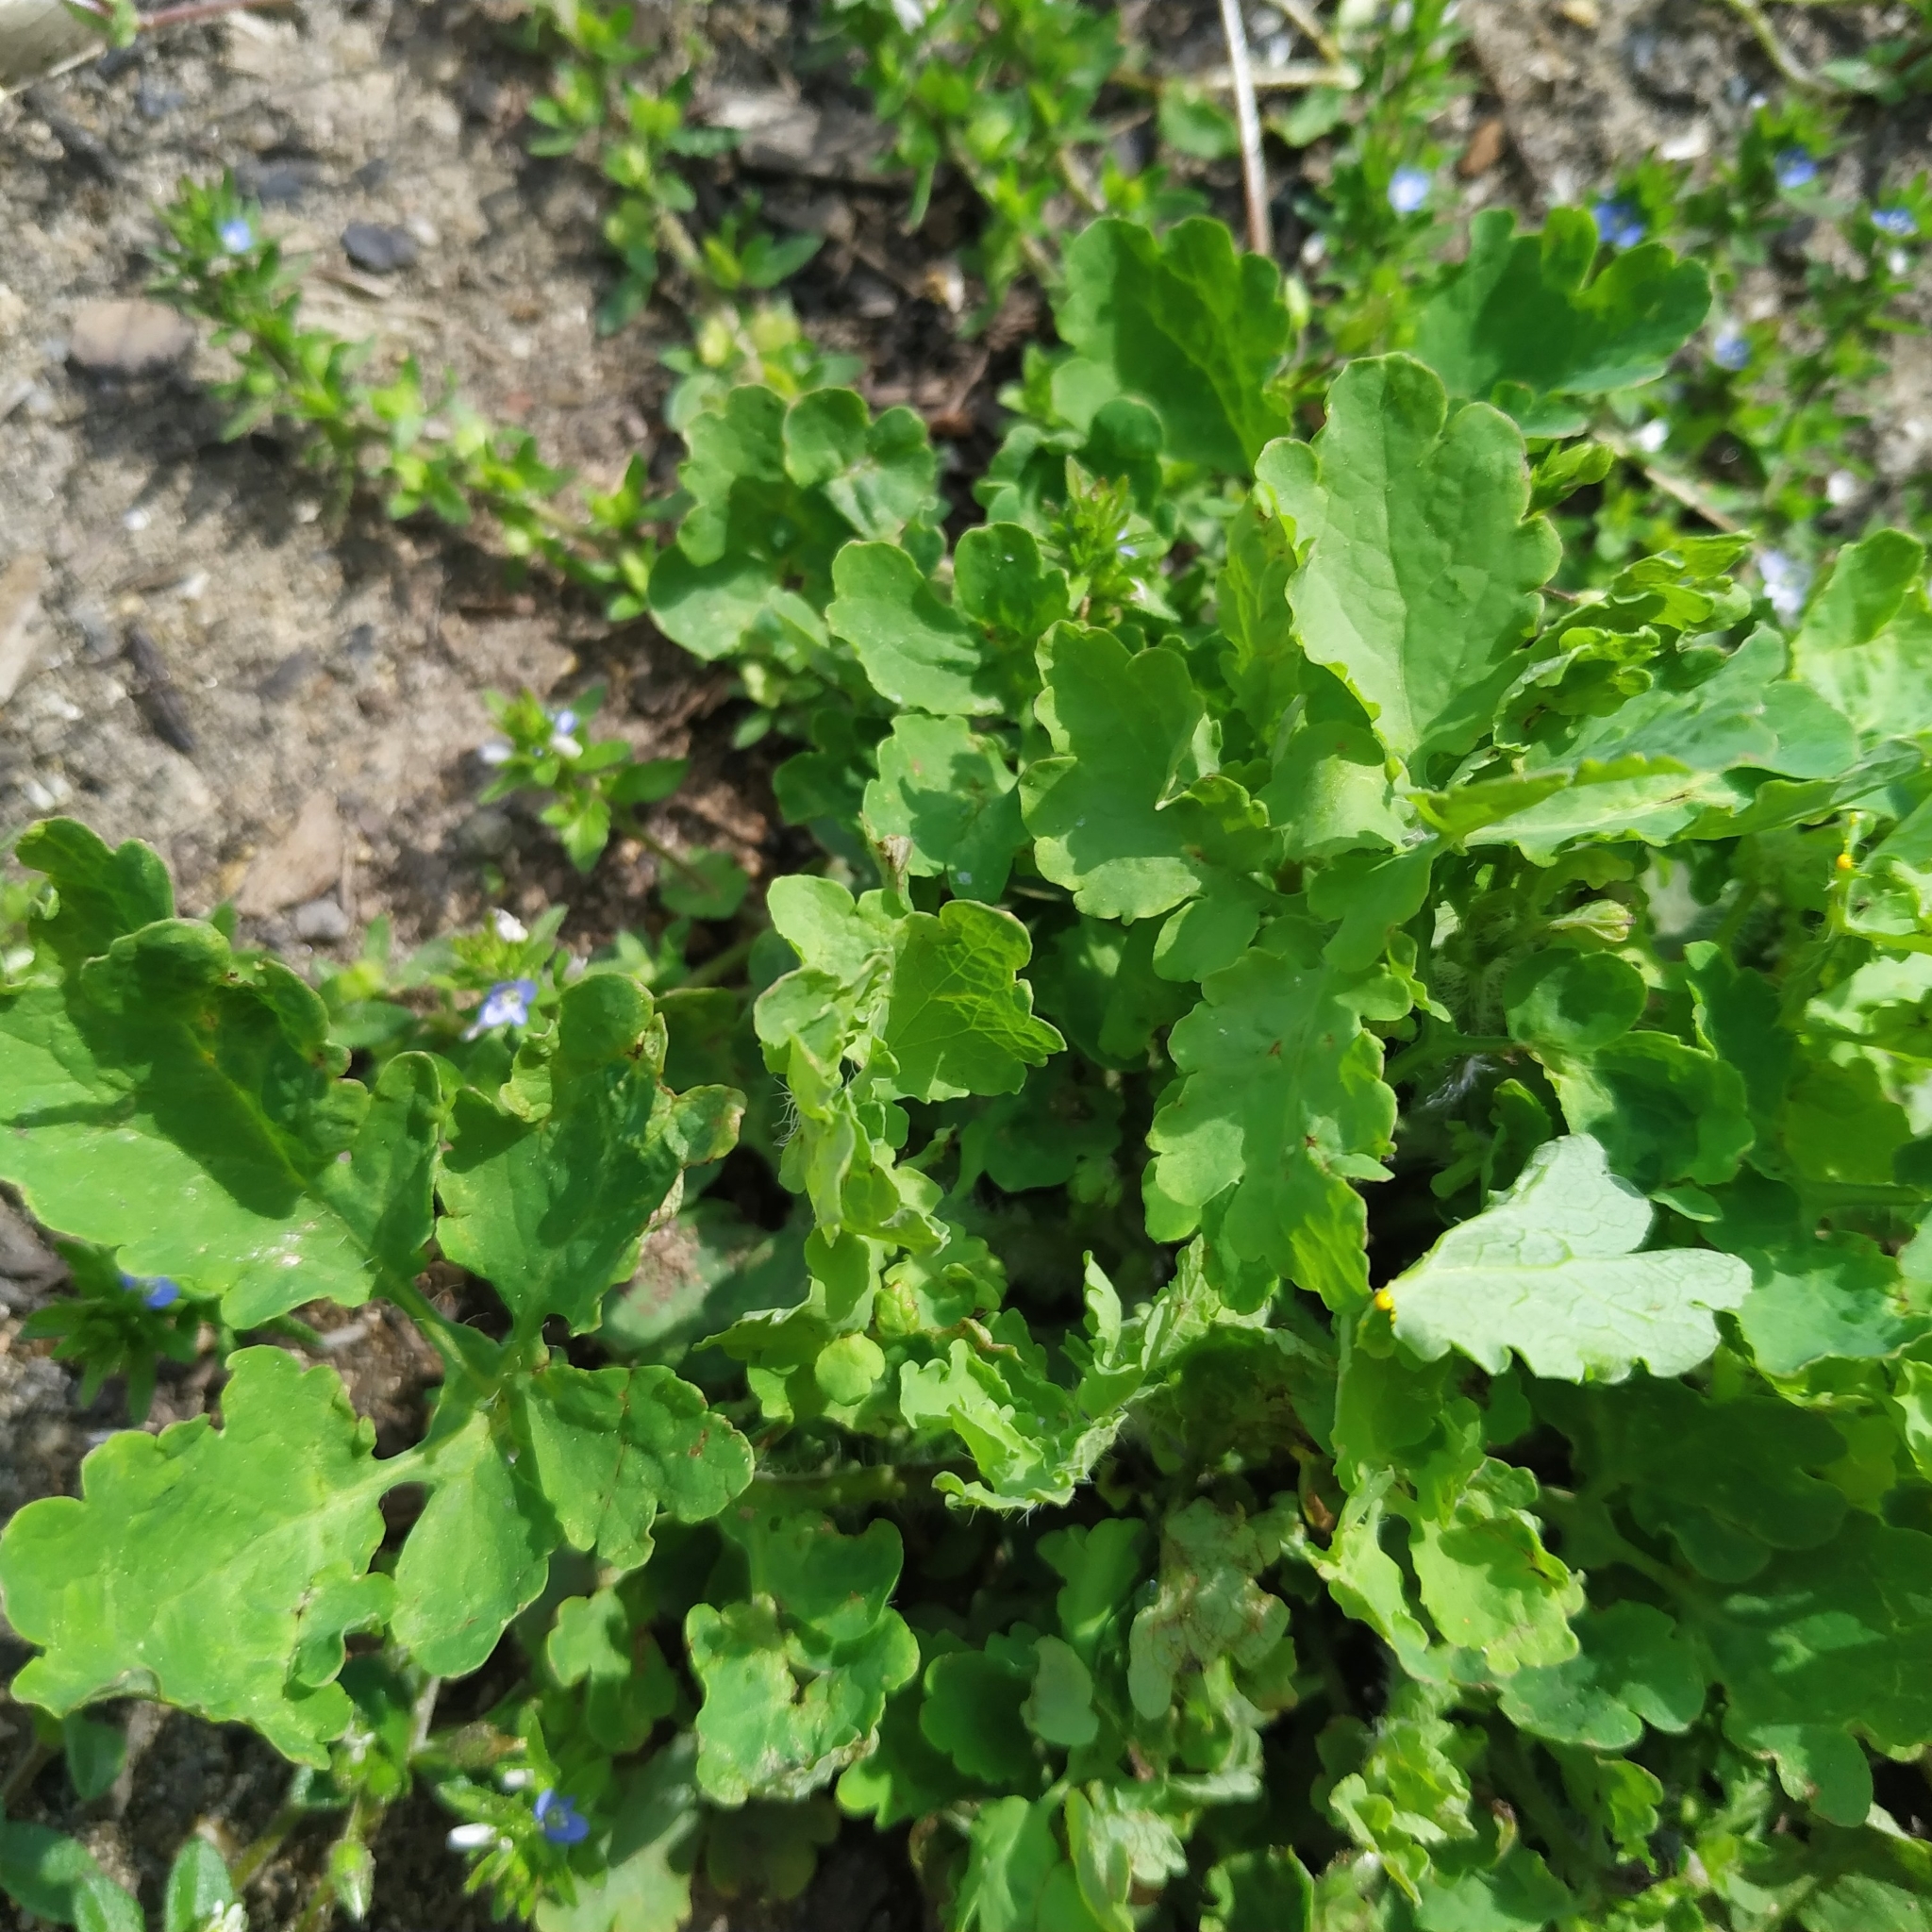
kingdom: Plantae
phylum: Tracheophyta
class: Magnoliopsida
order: Ranunculales
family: Papaveraceae
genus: Chelidonium
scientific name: Chelidonium majus
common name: Greater celandine
